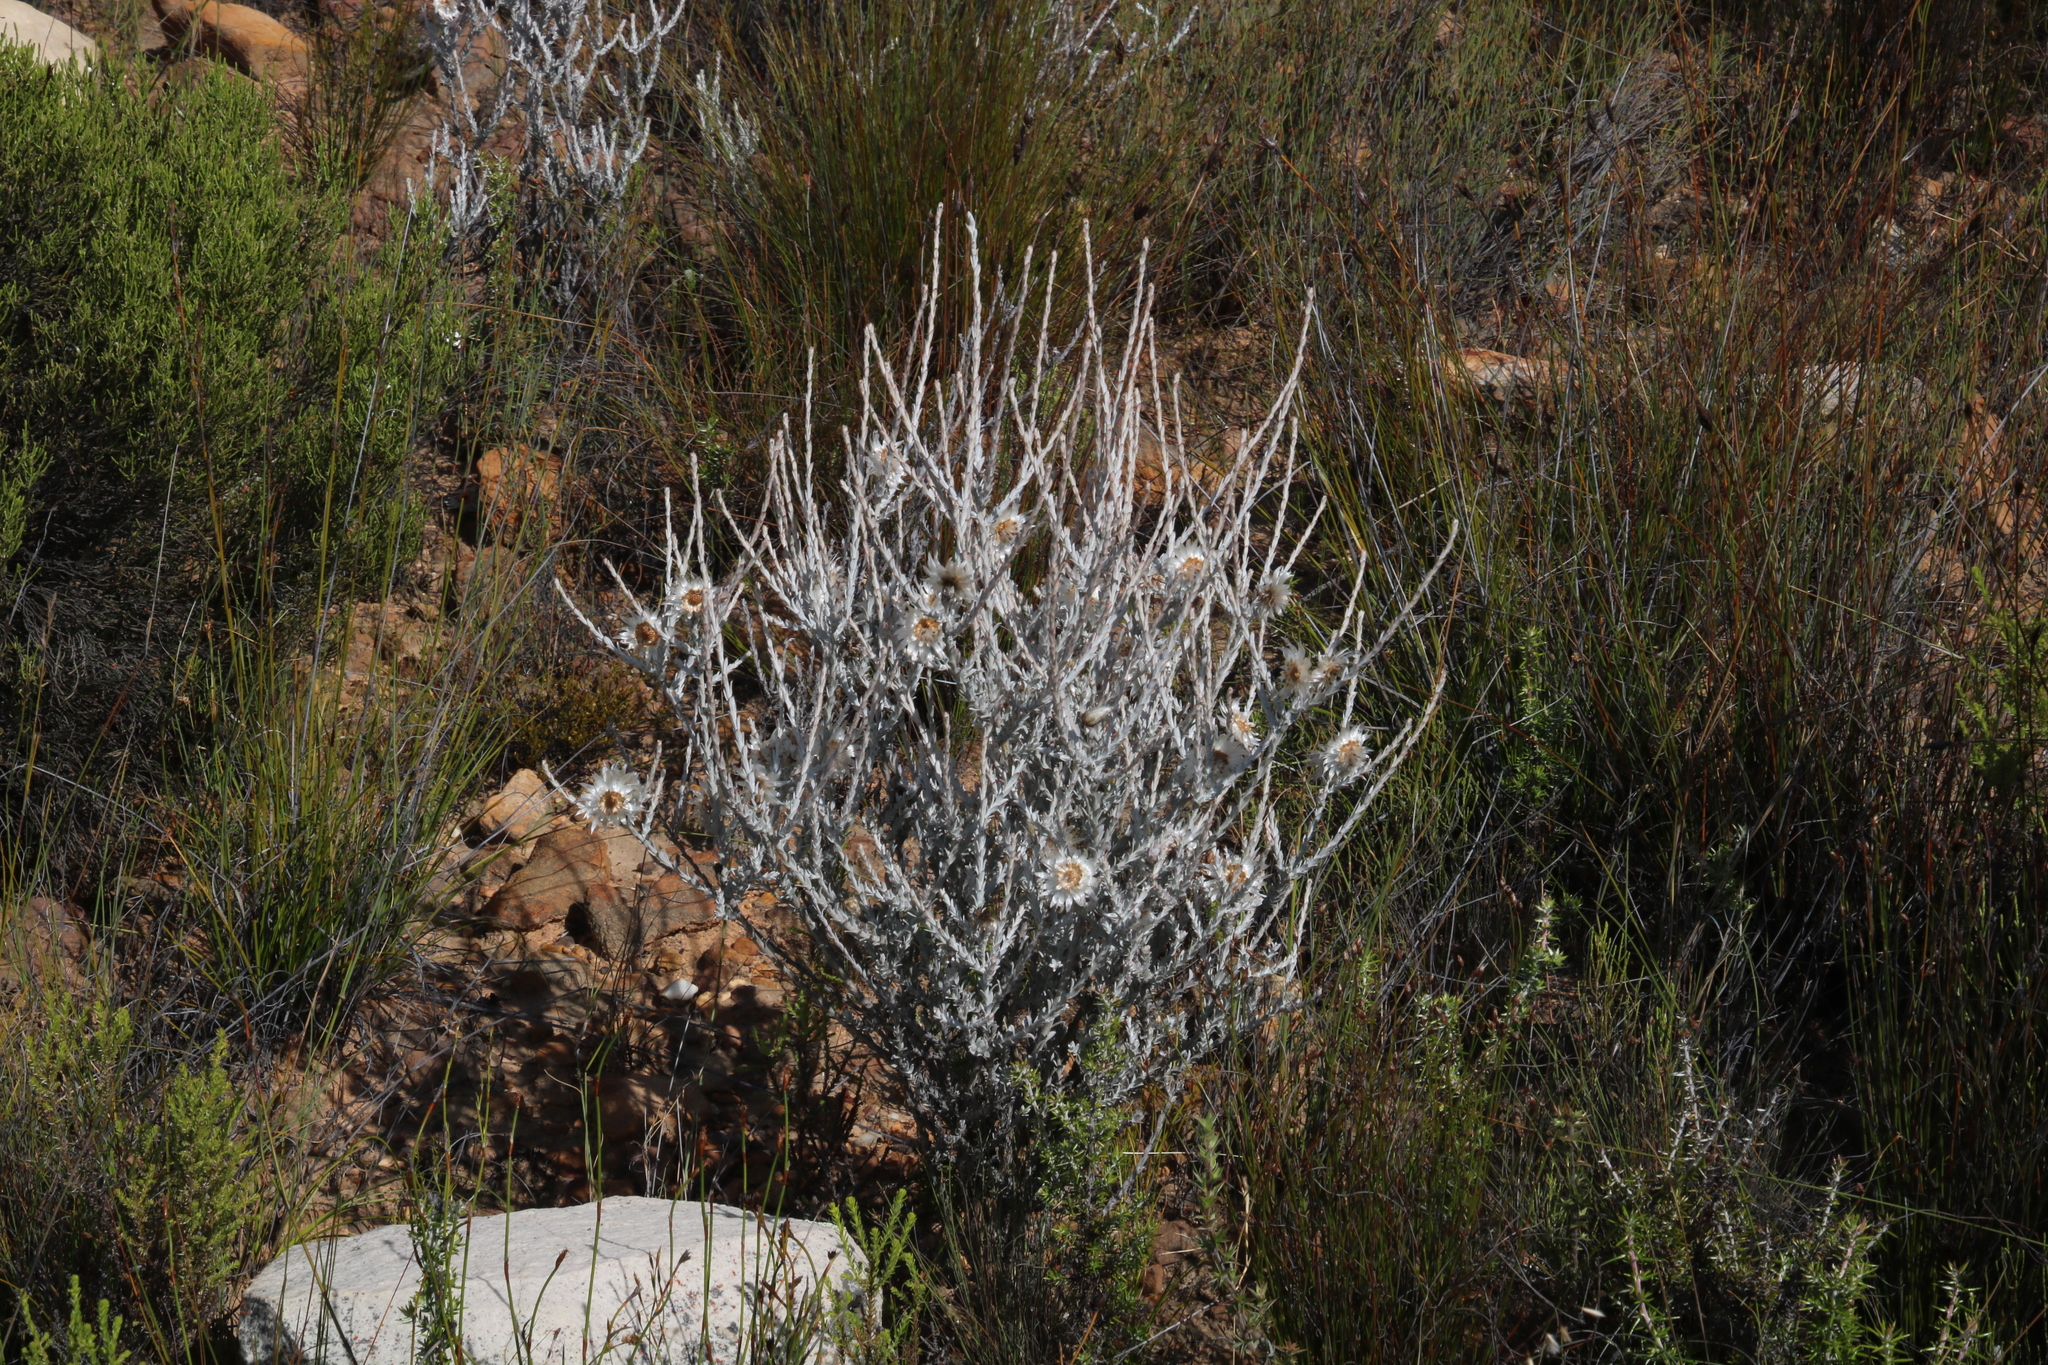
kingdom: Plantae
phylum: Tracheophyta
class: Magnoliopsida
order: Asterales
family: Asteraceae
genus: Syncarpha
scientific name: Syncarpha canescens
